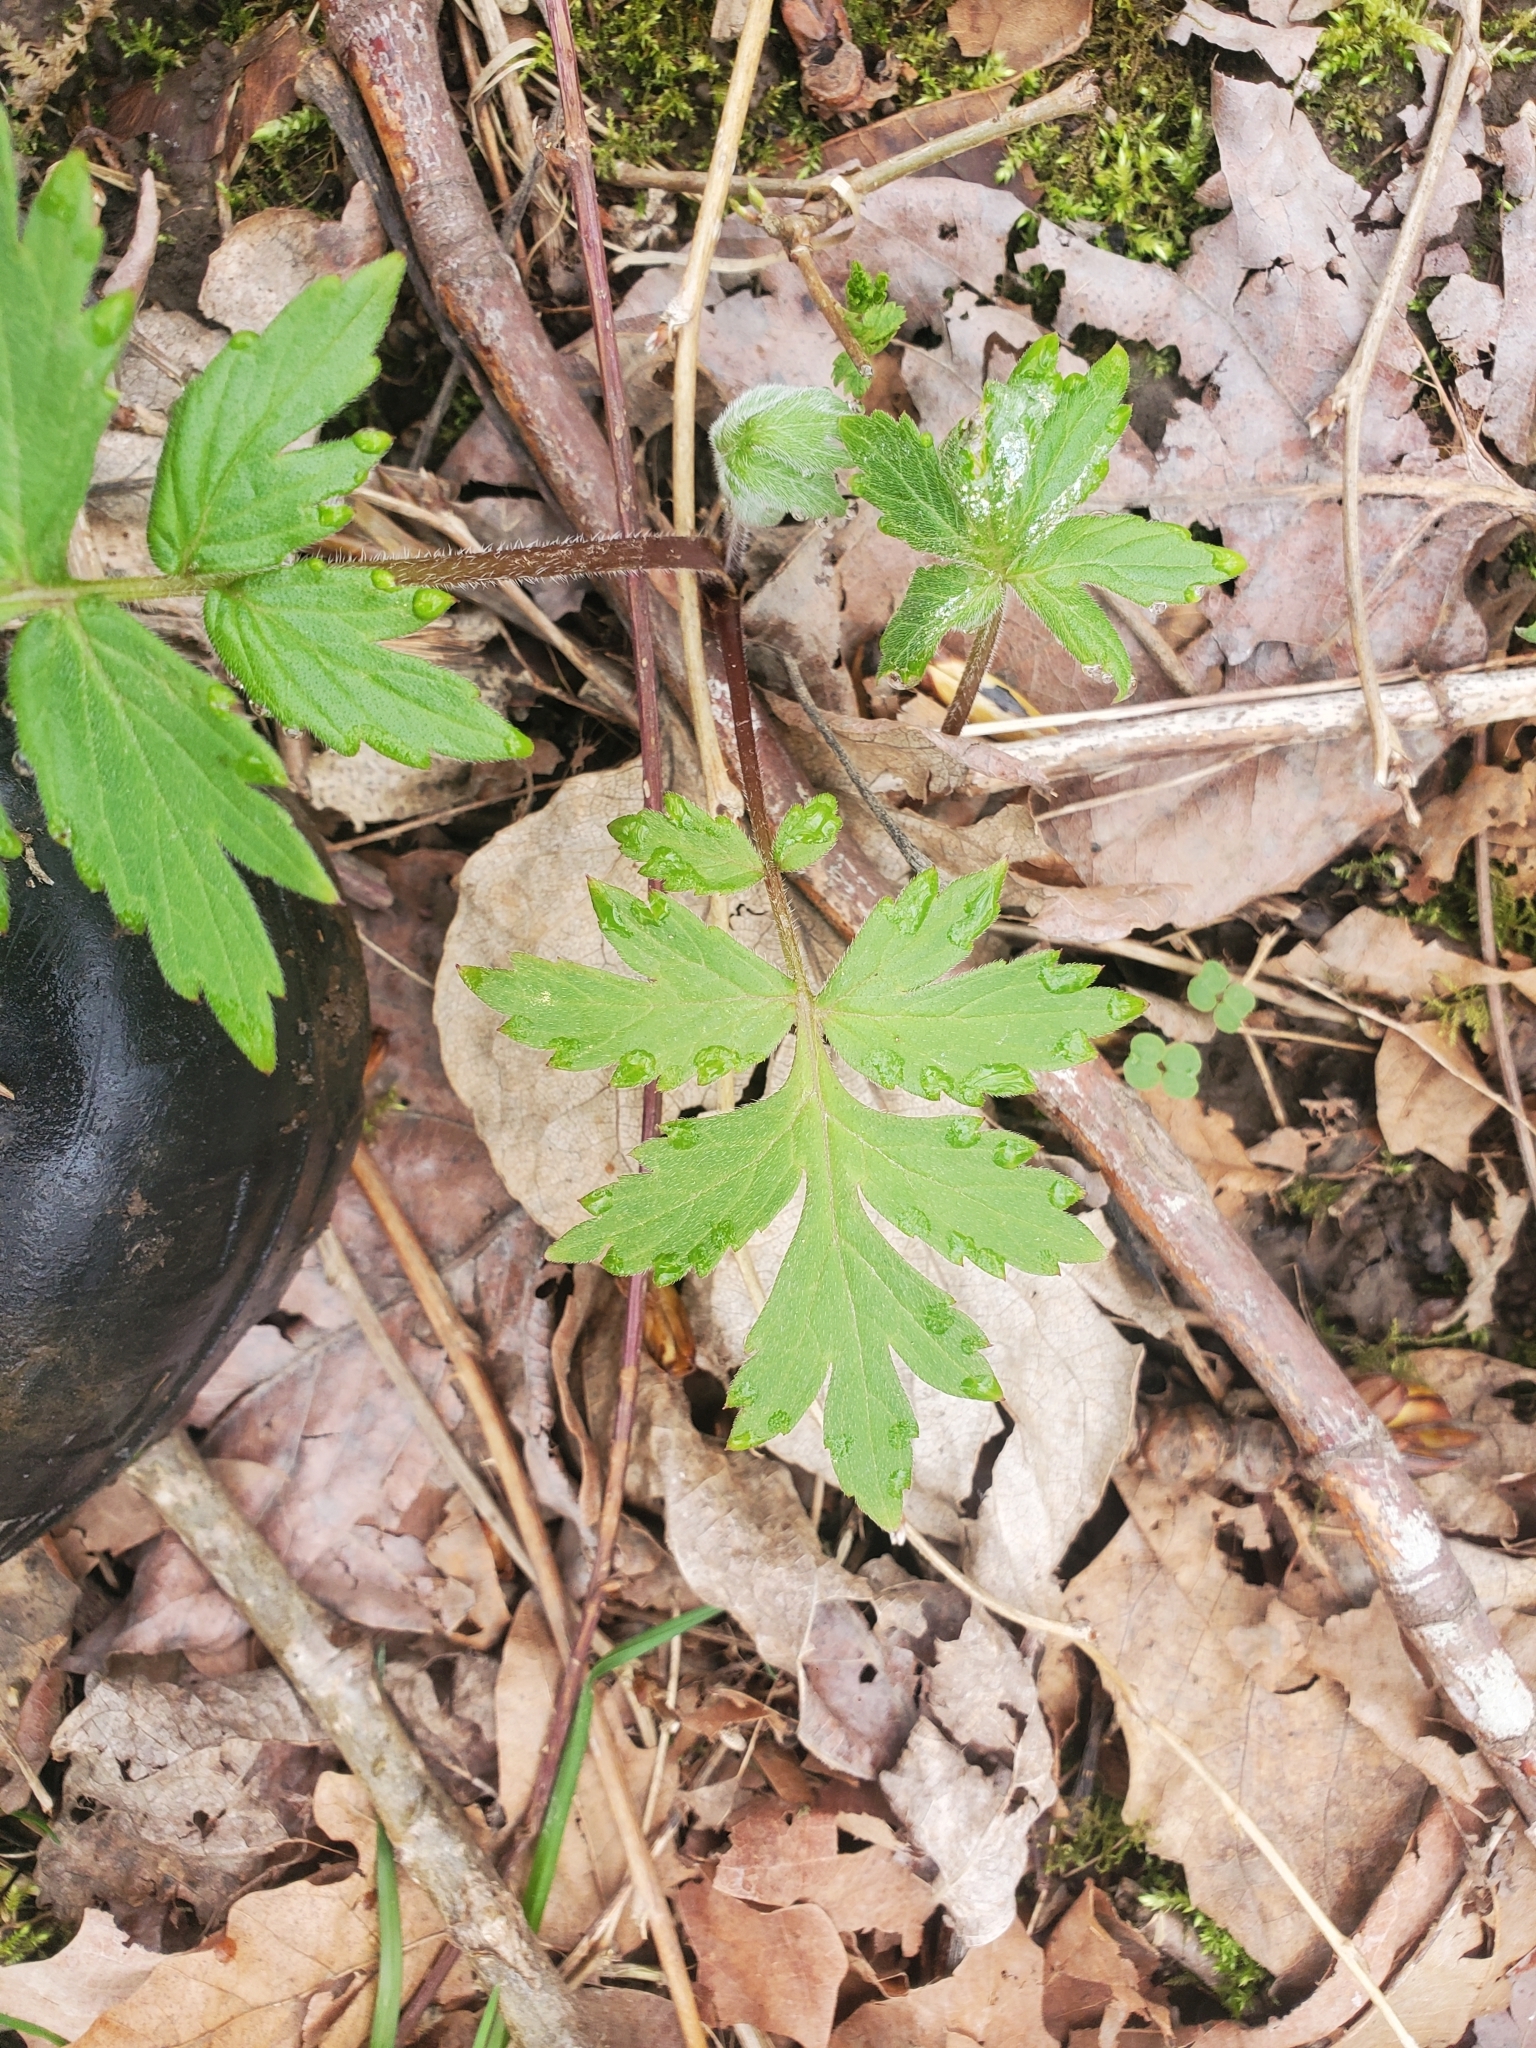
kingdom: Plantae
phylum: Tracheophyta
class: Magnoliopsida
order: Boraginales
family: Hydrophyllaceae
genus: Hydrophyllum
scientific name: Hydrophyllum tenuipes
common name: Pacific waterleaf
